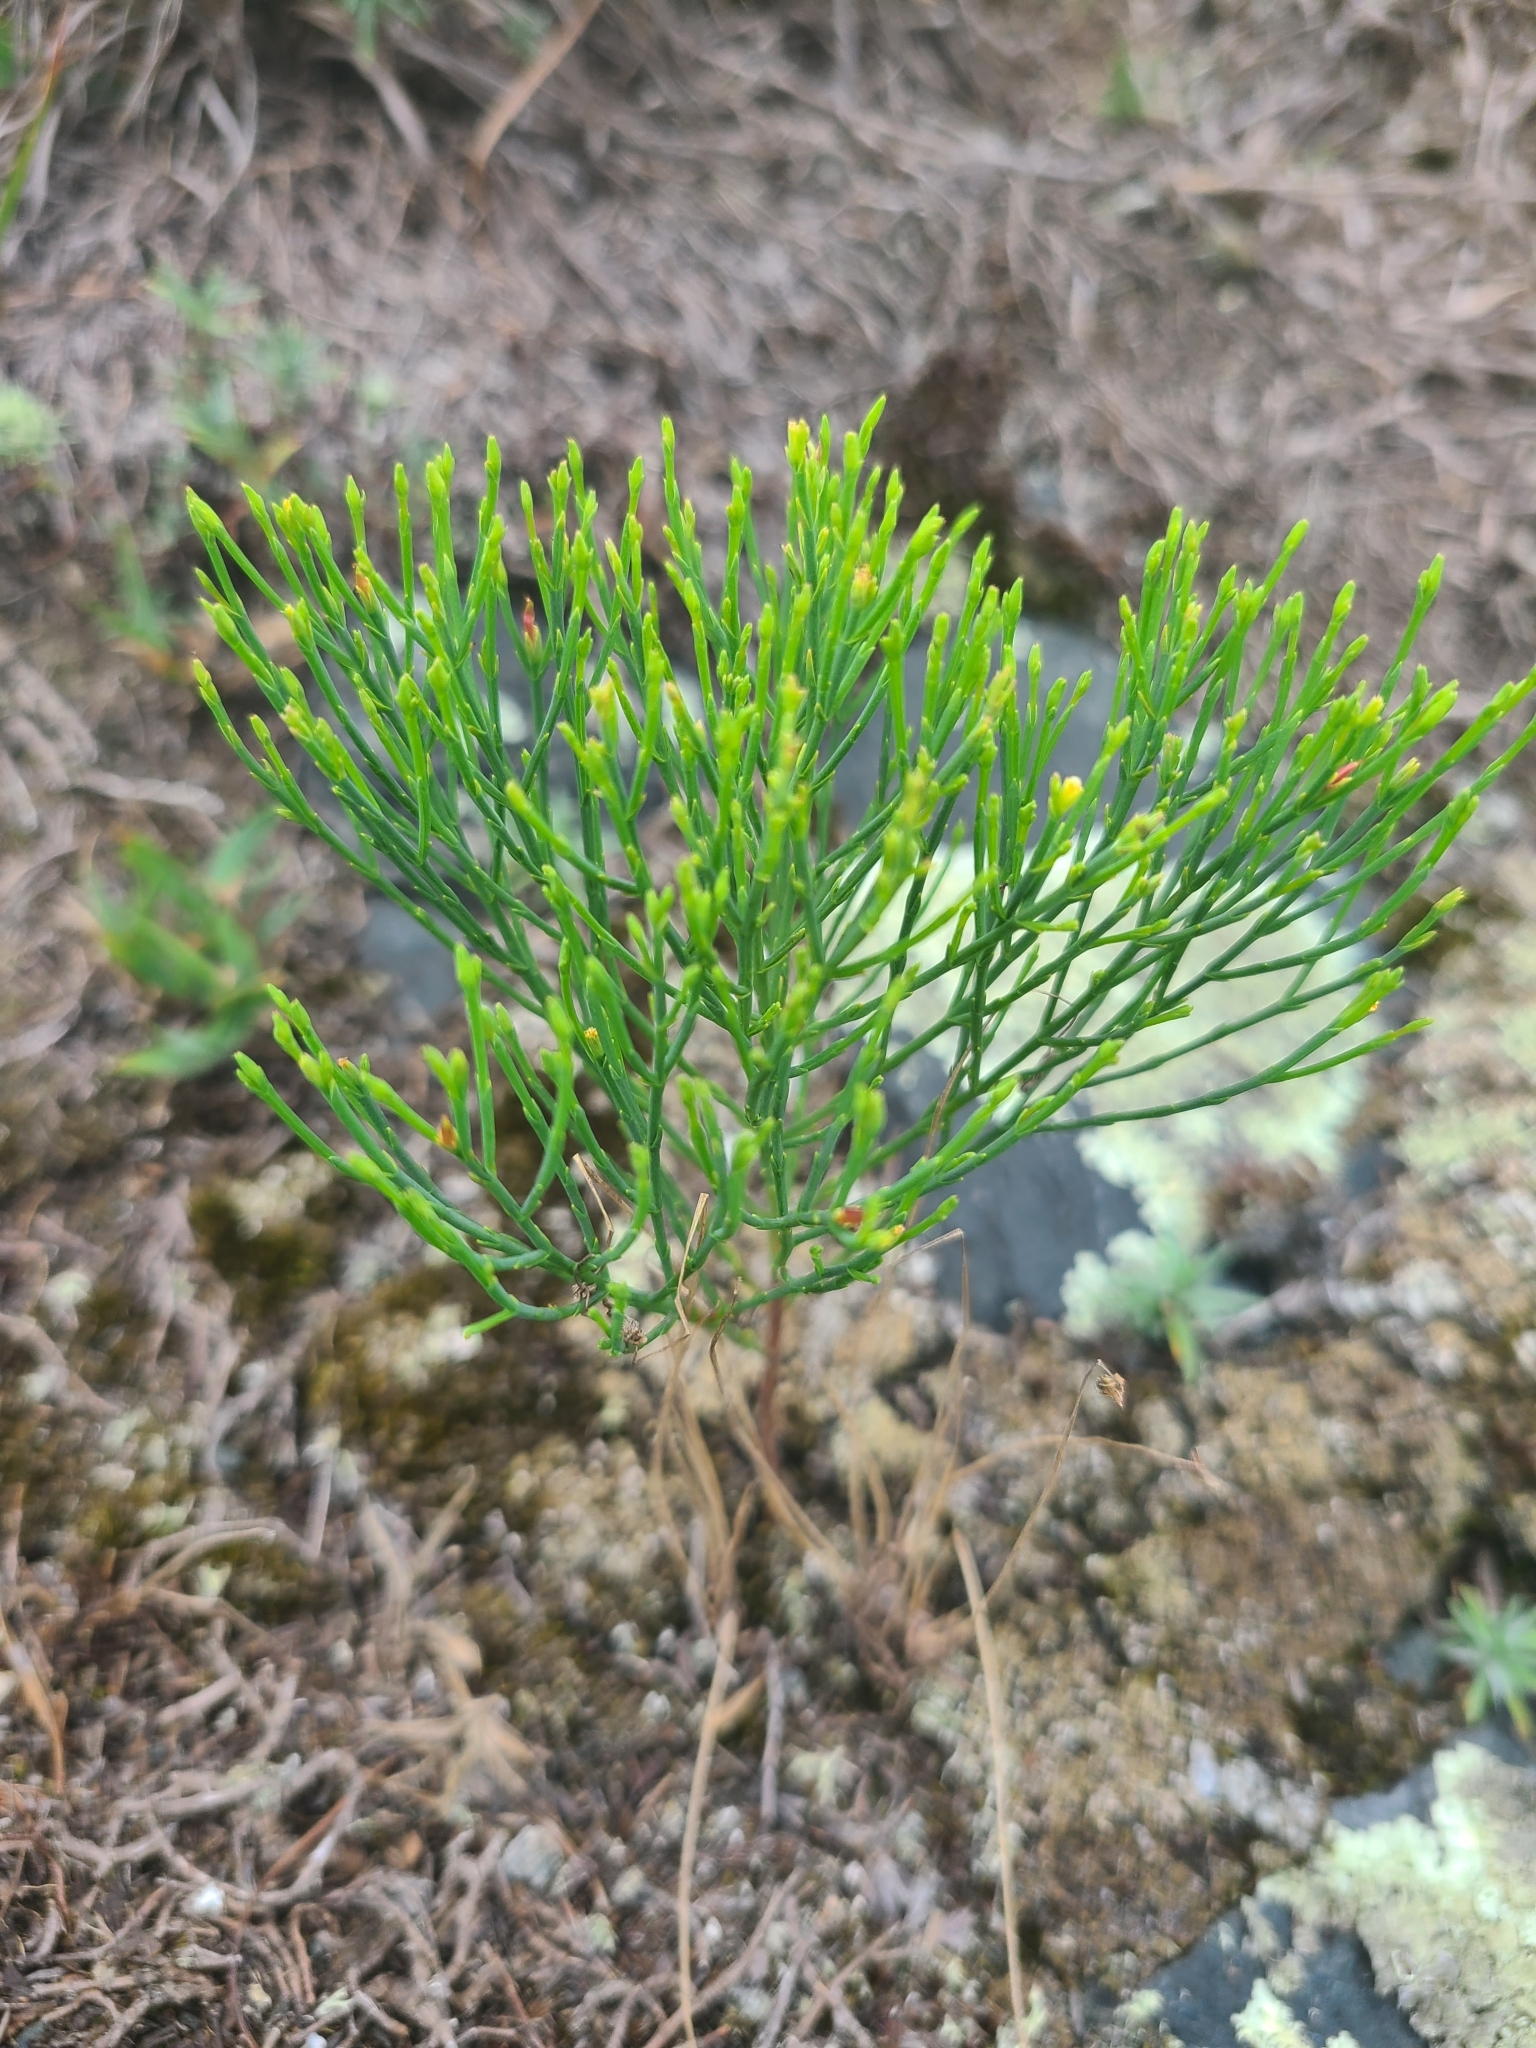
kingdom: Plantae
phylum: Tracheophyta
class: Magnoliopsida
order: Malpighiales
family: Hypericaceae
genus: Hypericum
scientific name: Hypericum gentianoides
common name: Gentian-leaved st. john's-wort
